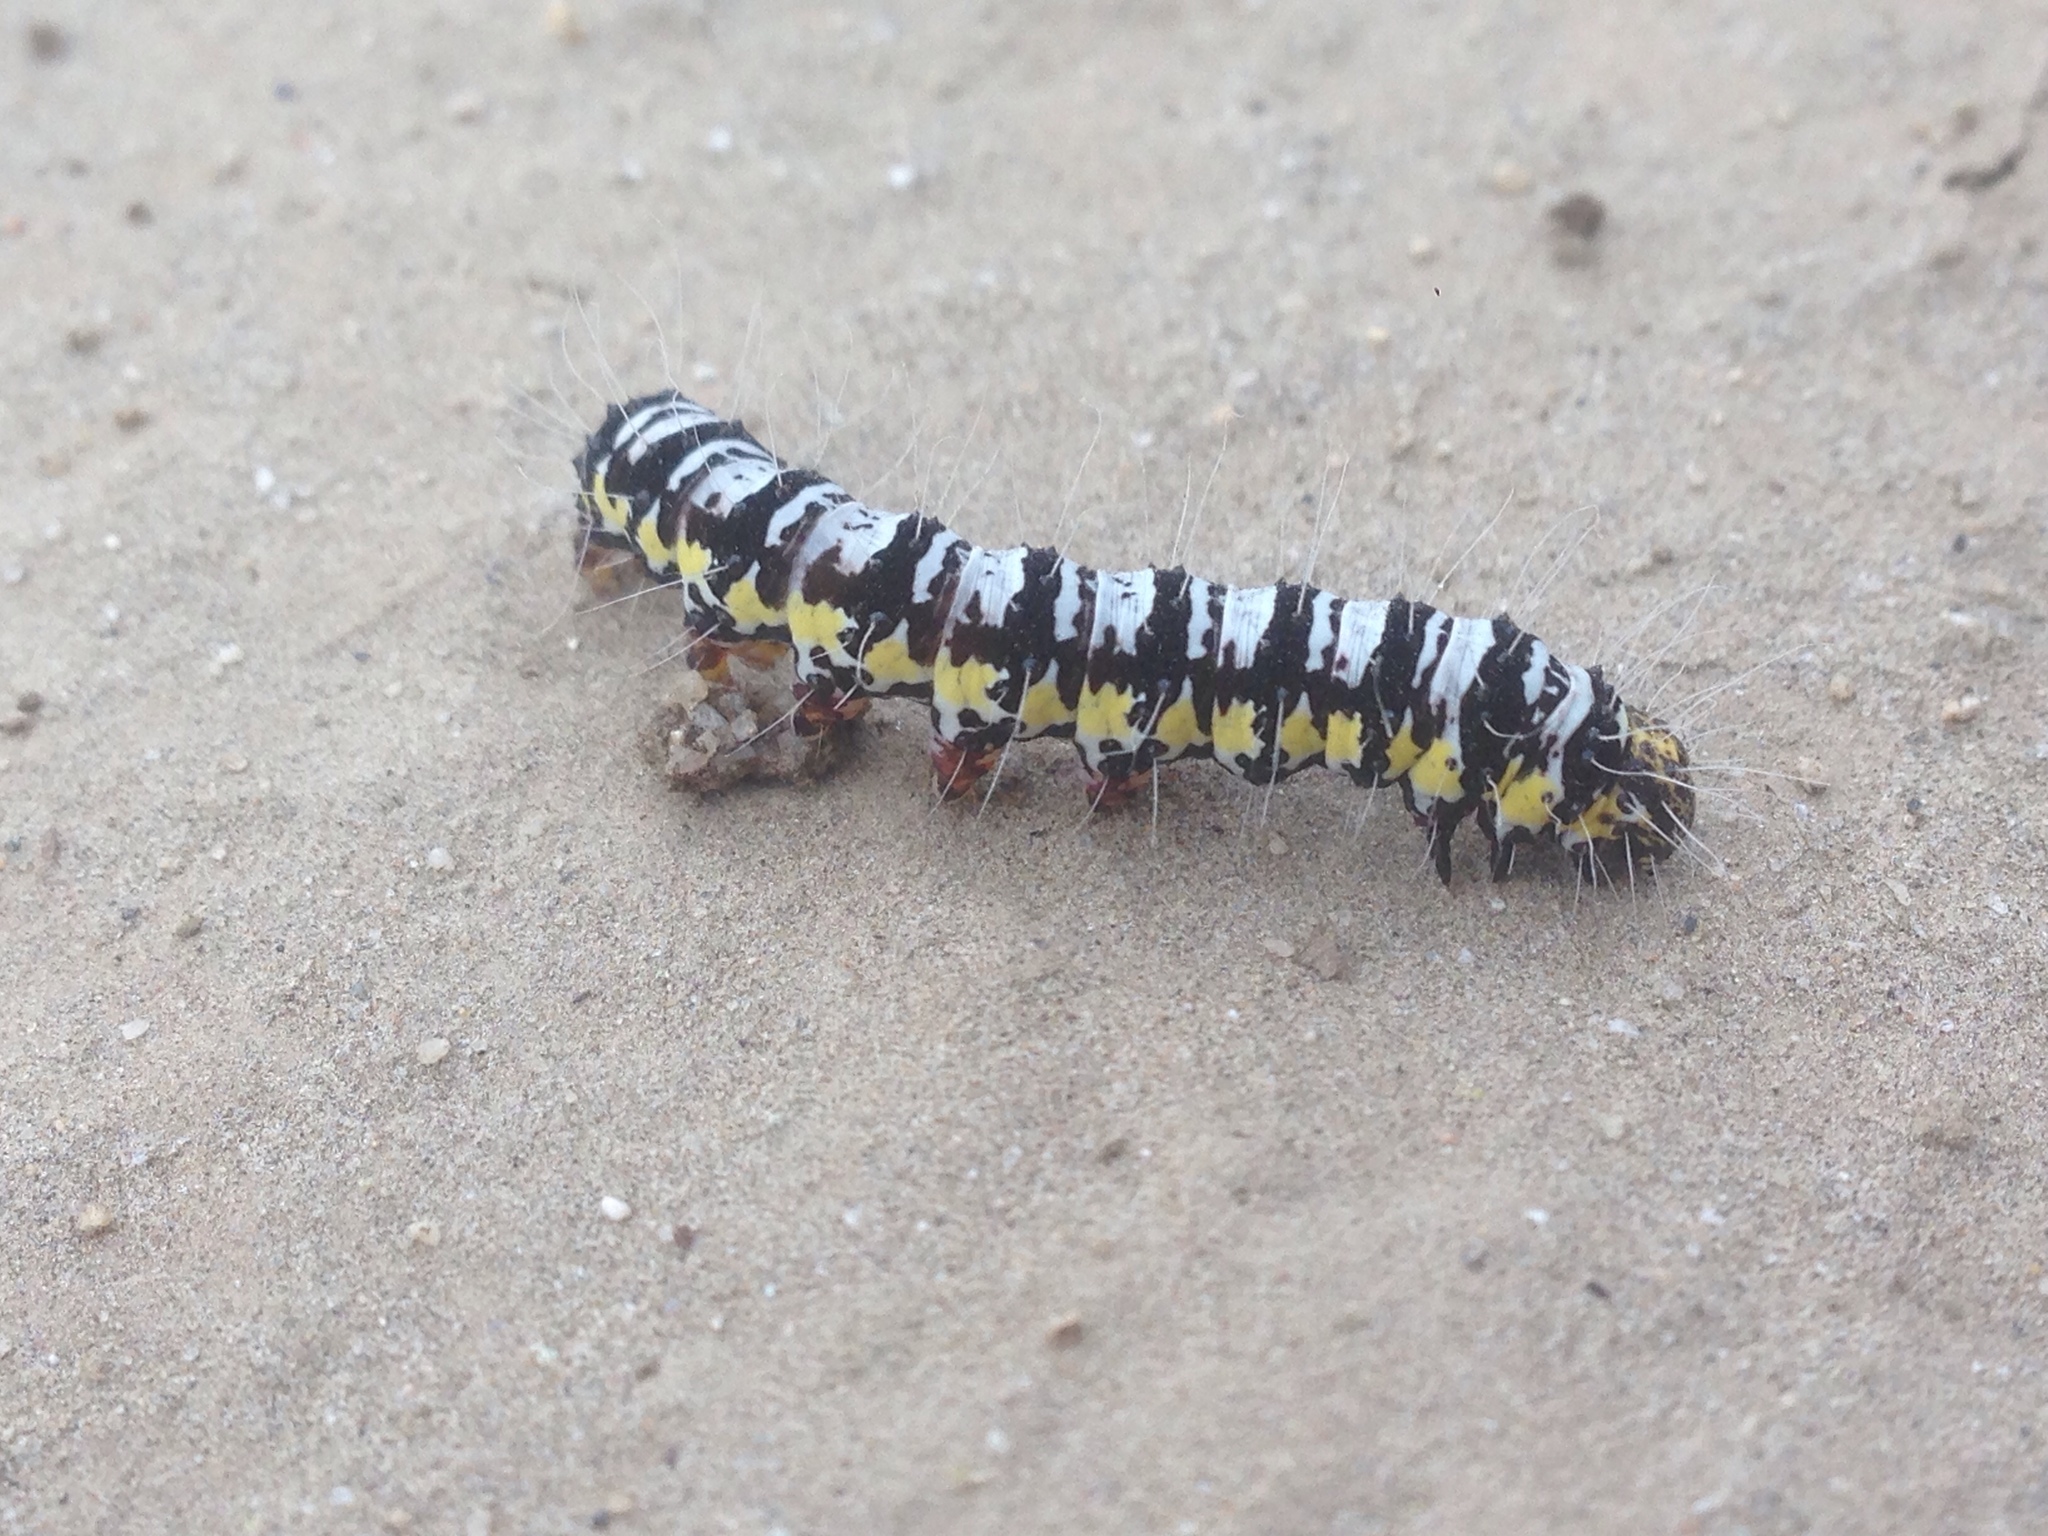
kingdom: Animalia
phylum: Arthropoda
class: Insecta
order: Lepidoptera
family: Noctuidae
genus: Alypia
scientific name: Alypia ridingsii
